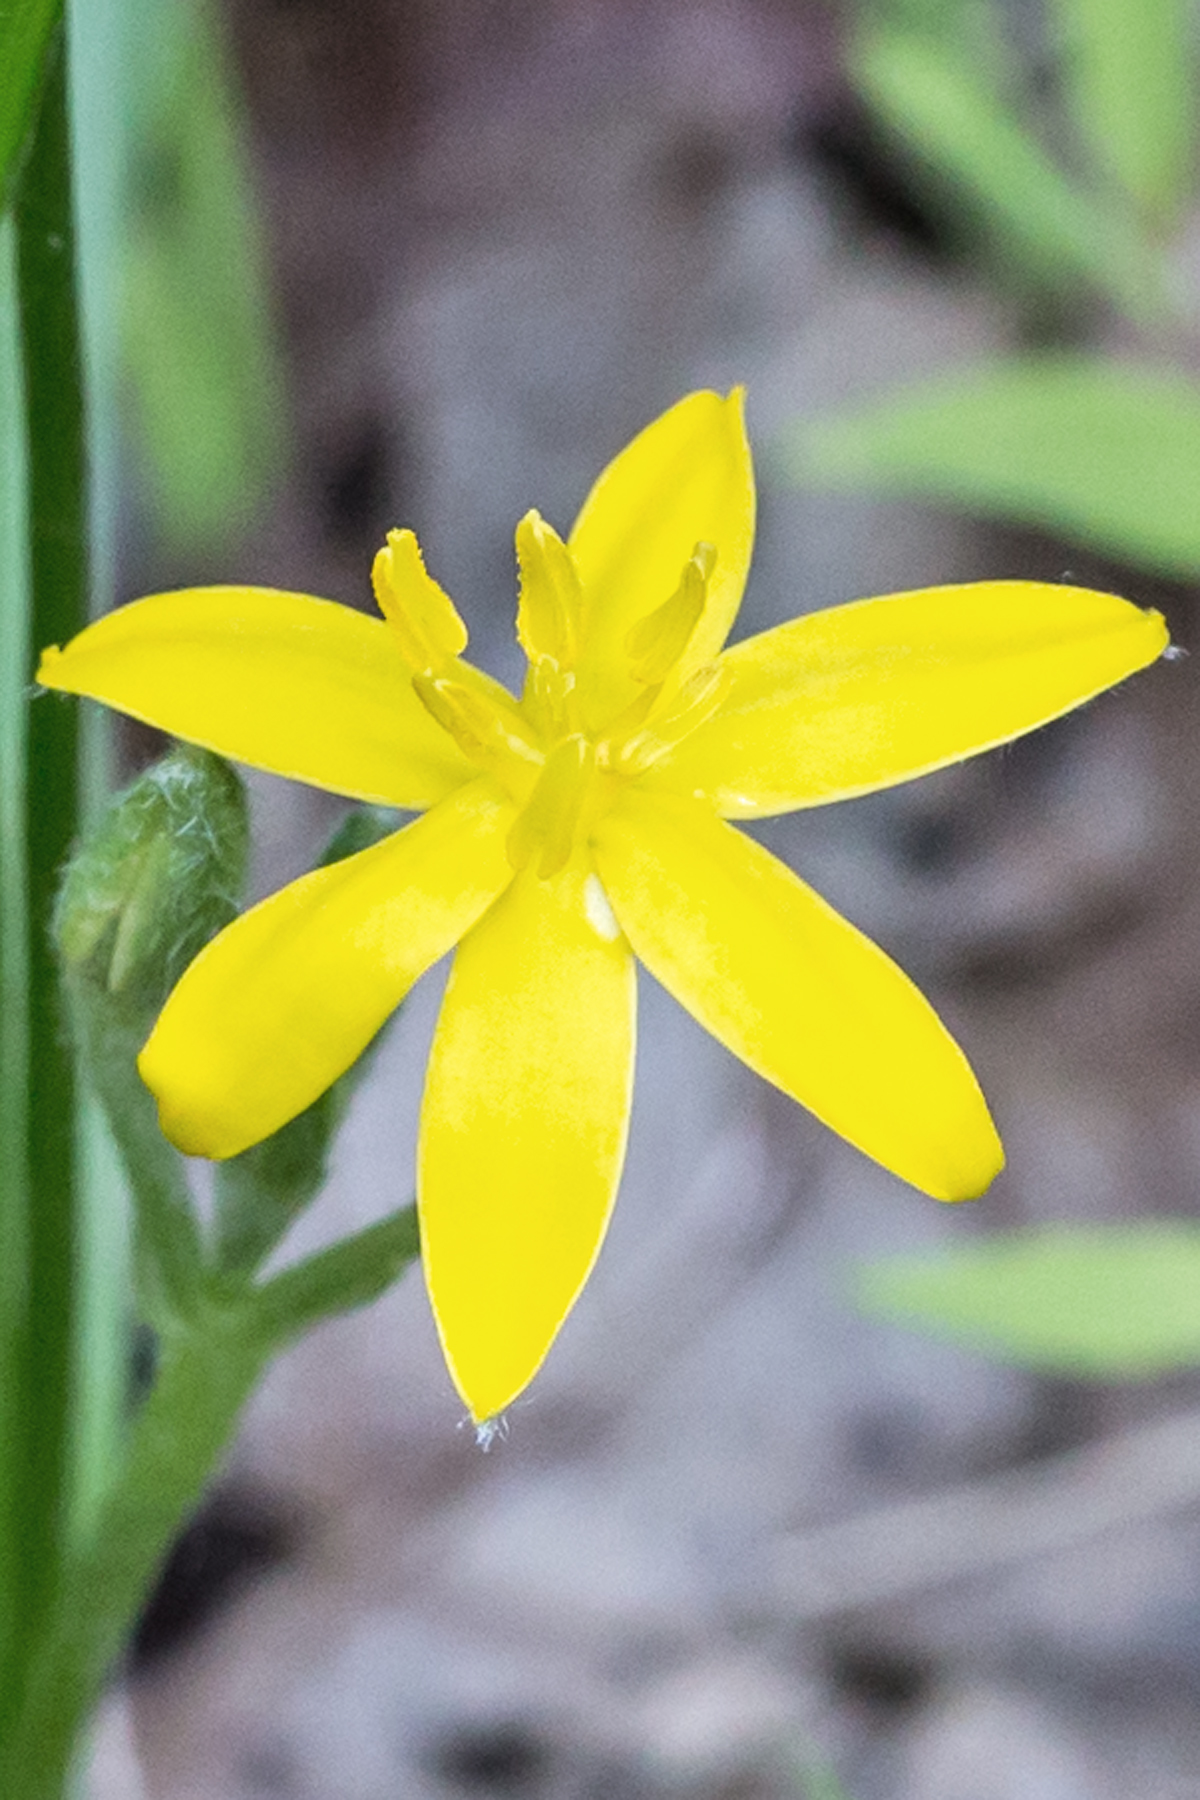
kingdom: Plantae
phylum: Tracheophyta
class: Liliopsida
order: Asparagales
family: Hypoxidaceae
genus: Hypoxis
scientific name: Hypoxis hirsuta
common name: Common goldstar
